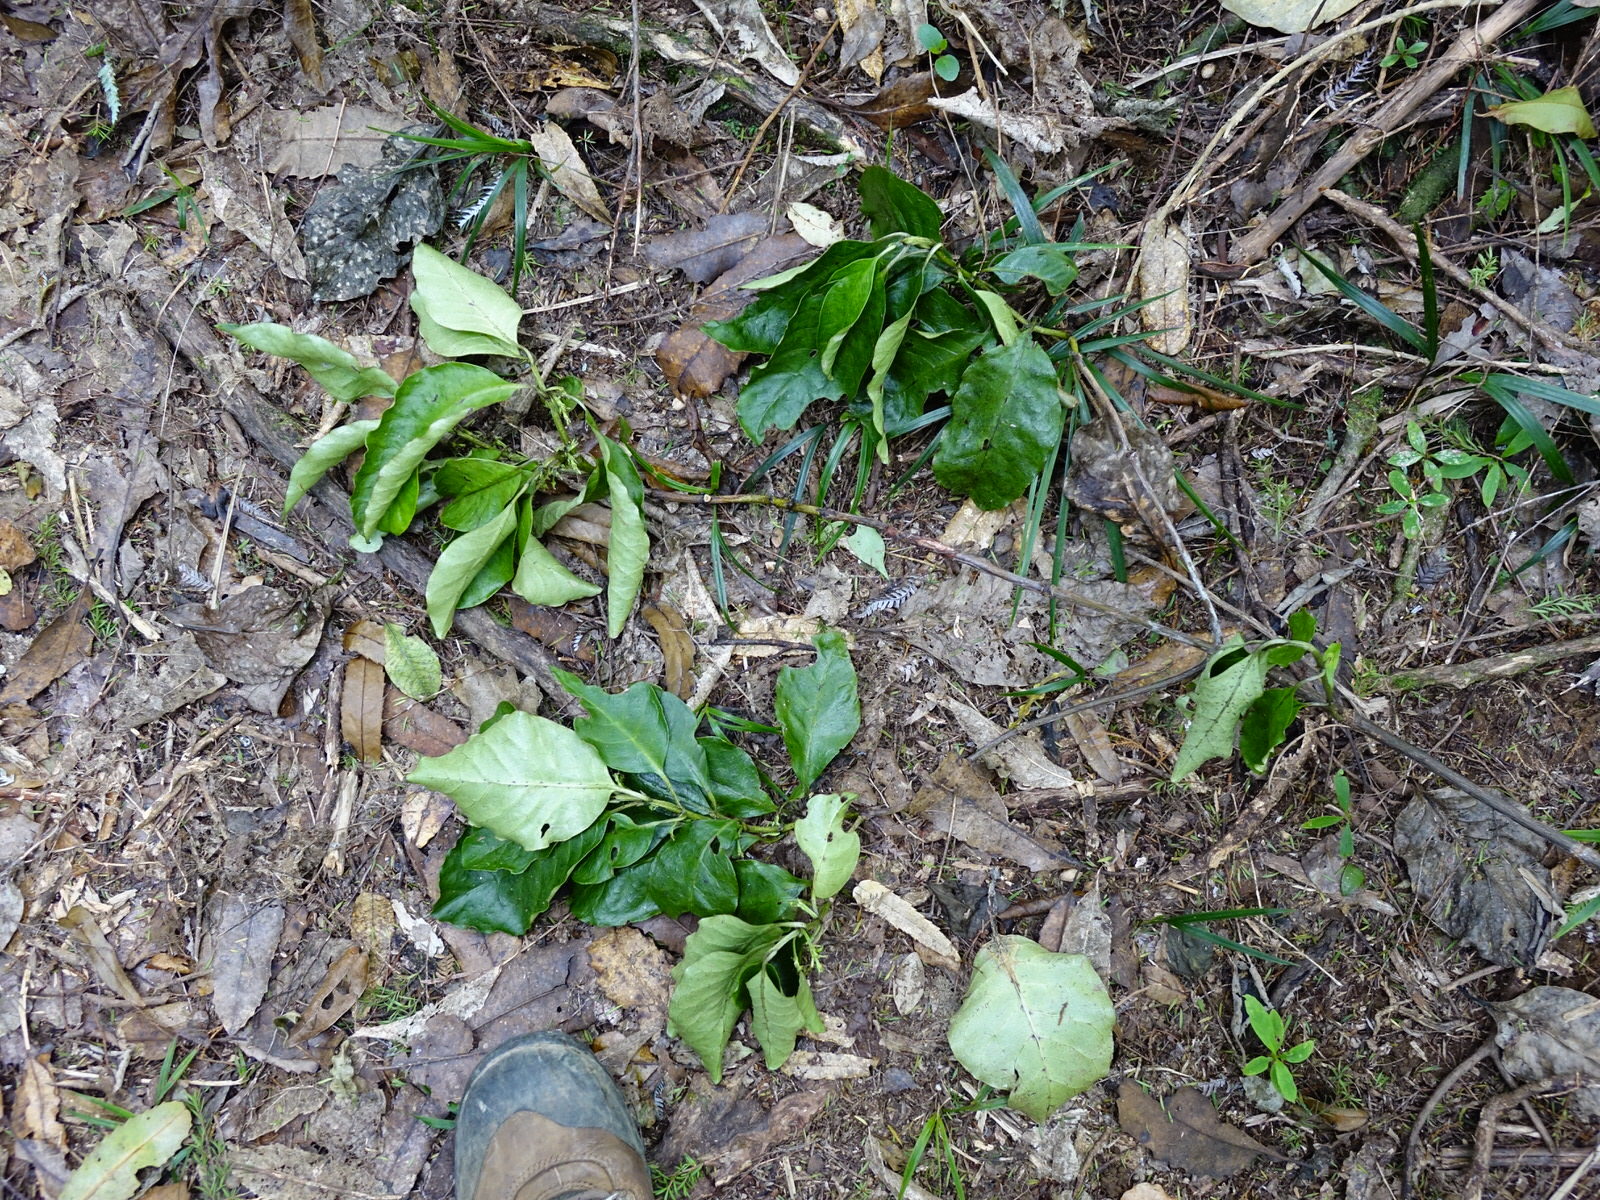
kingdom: Plantae
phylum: Tracheophyta
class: Magnoliopsida
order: Gentianales
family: Rubiaceae
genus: Coprosma
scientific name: Coprosma autumnalis
